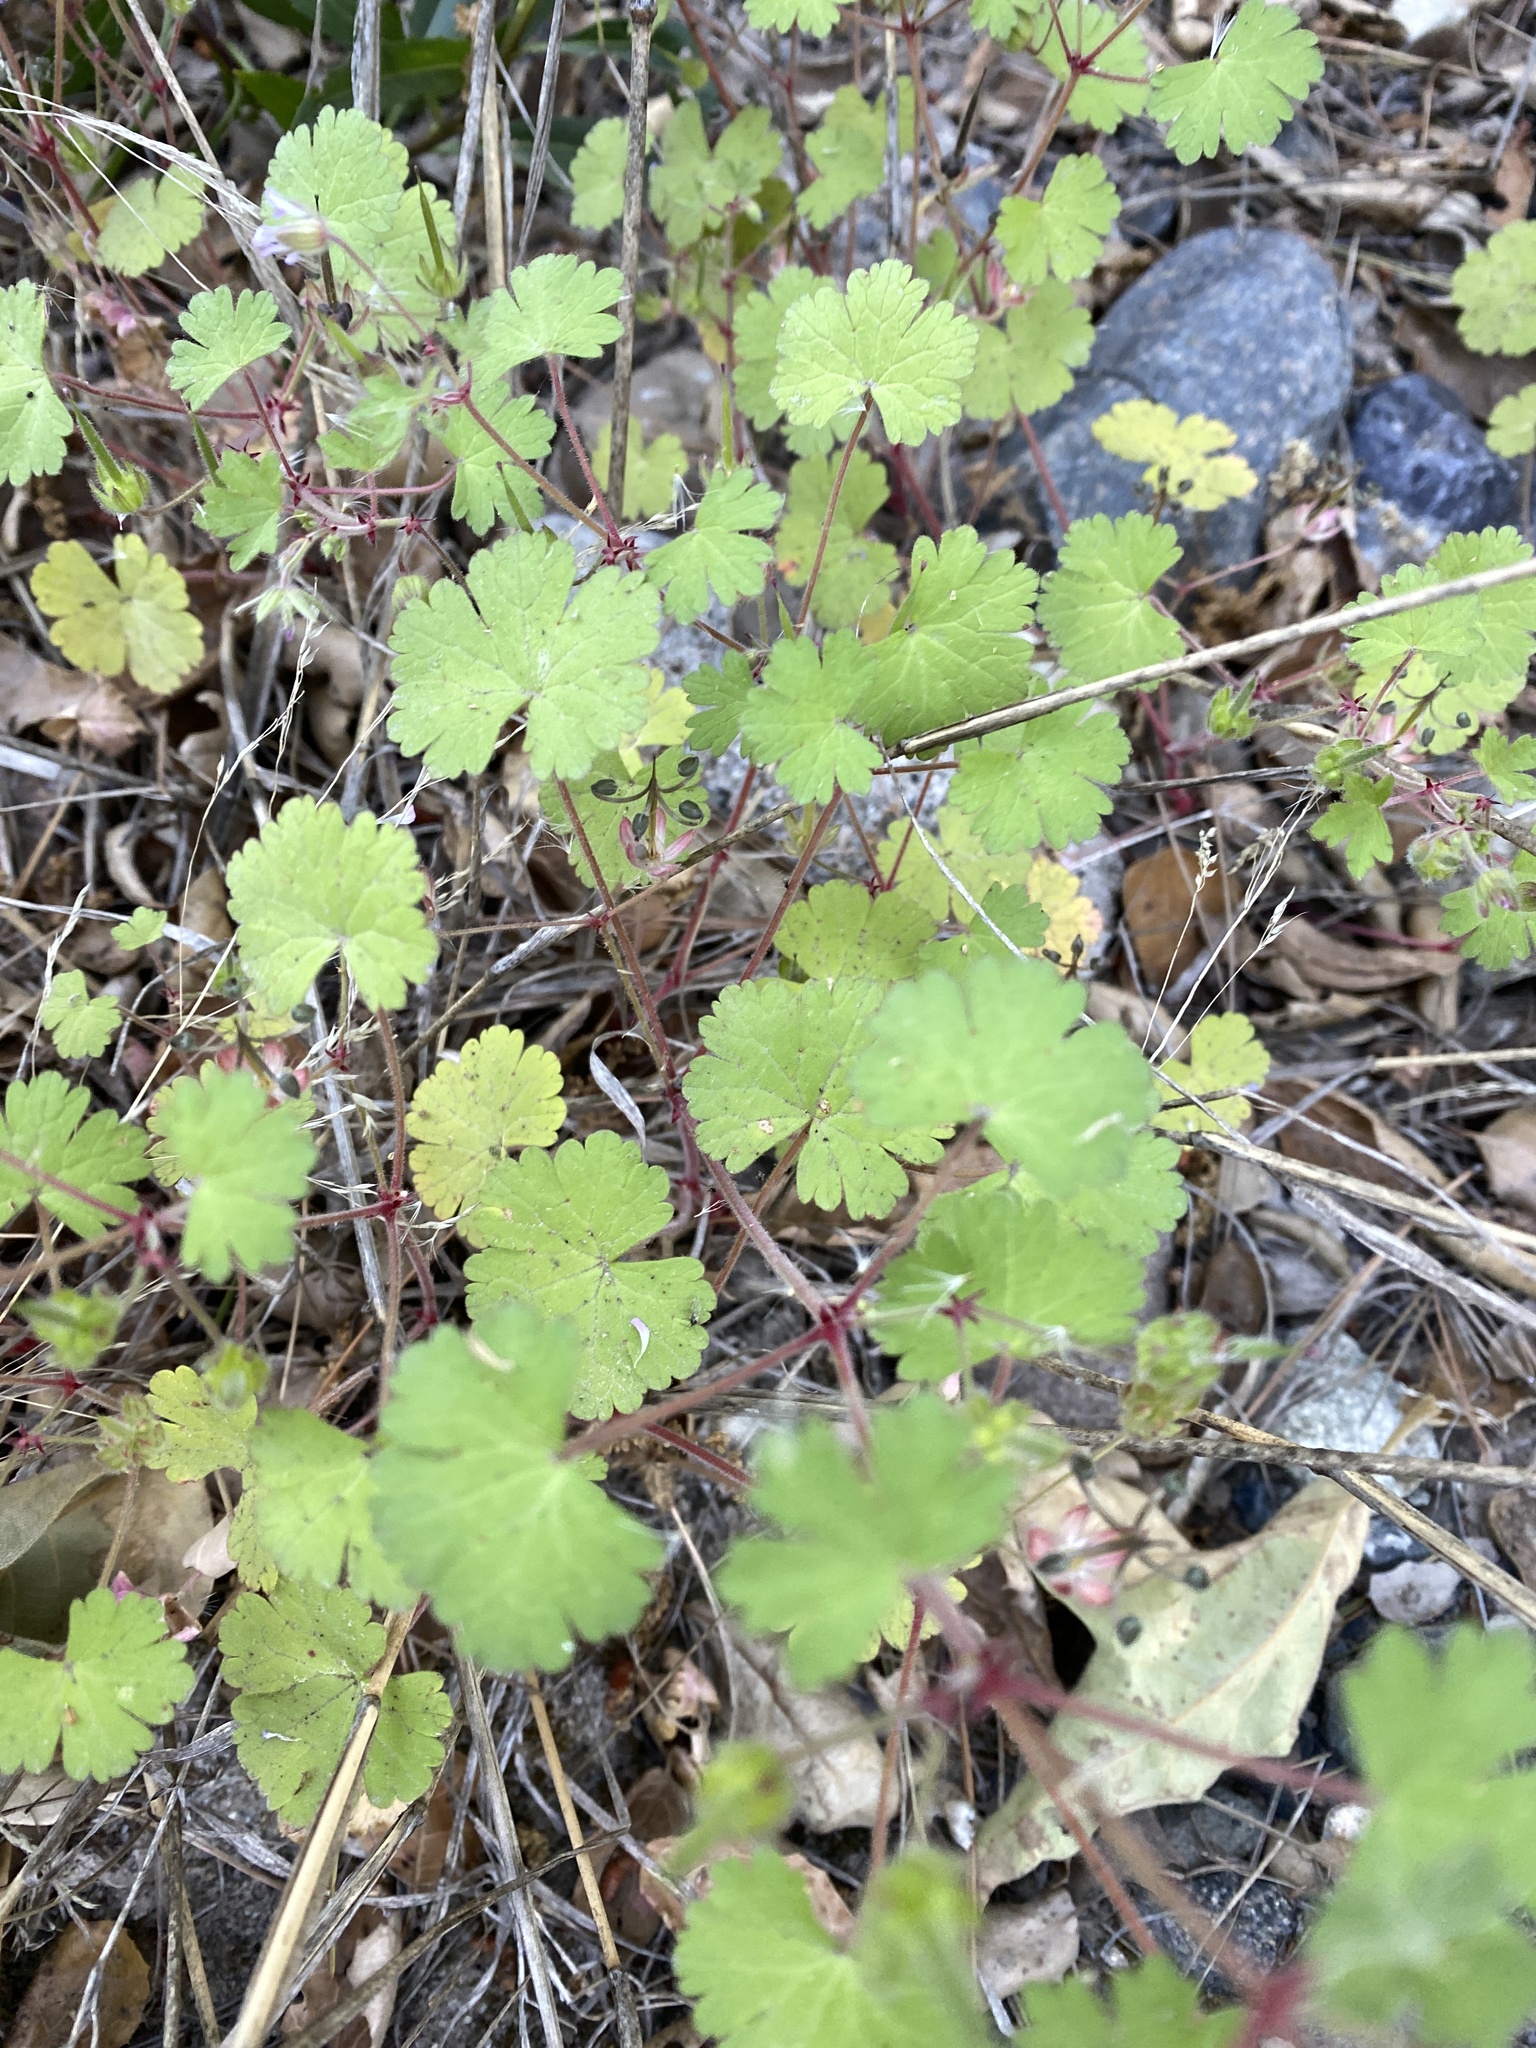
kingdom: Plantae
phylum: Tracheophyta
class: Magnoliopsida
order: Geraniales
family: Geraniaceae
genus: Geranium
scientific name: Geranium rotundifolium
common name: Round-leaved crane's-bill
